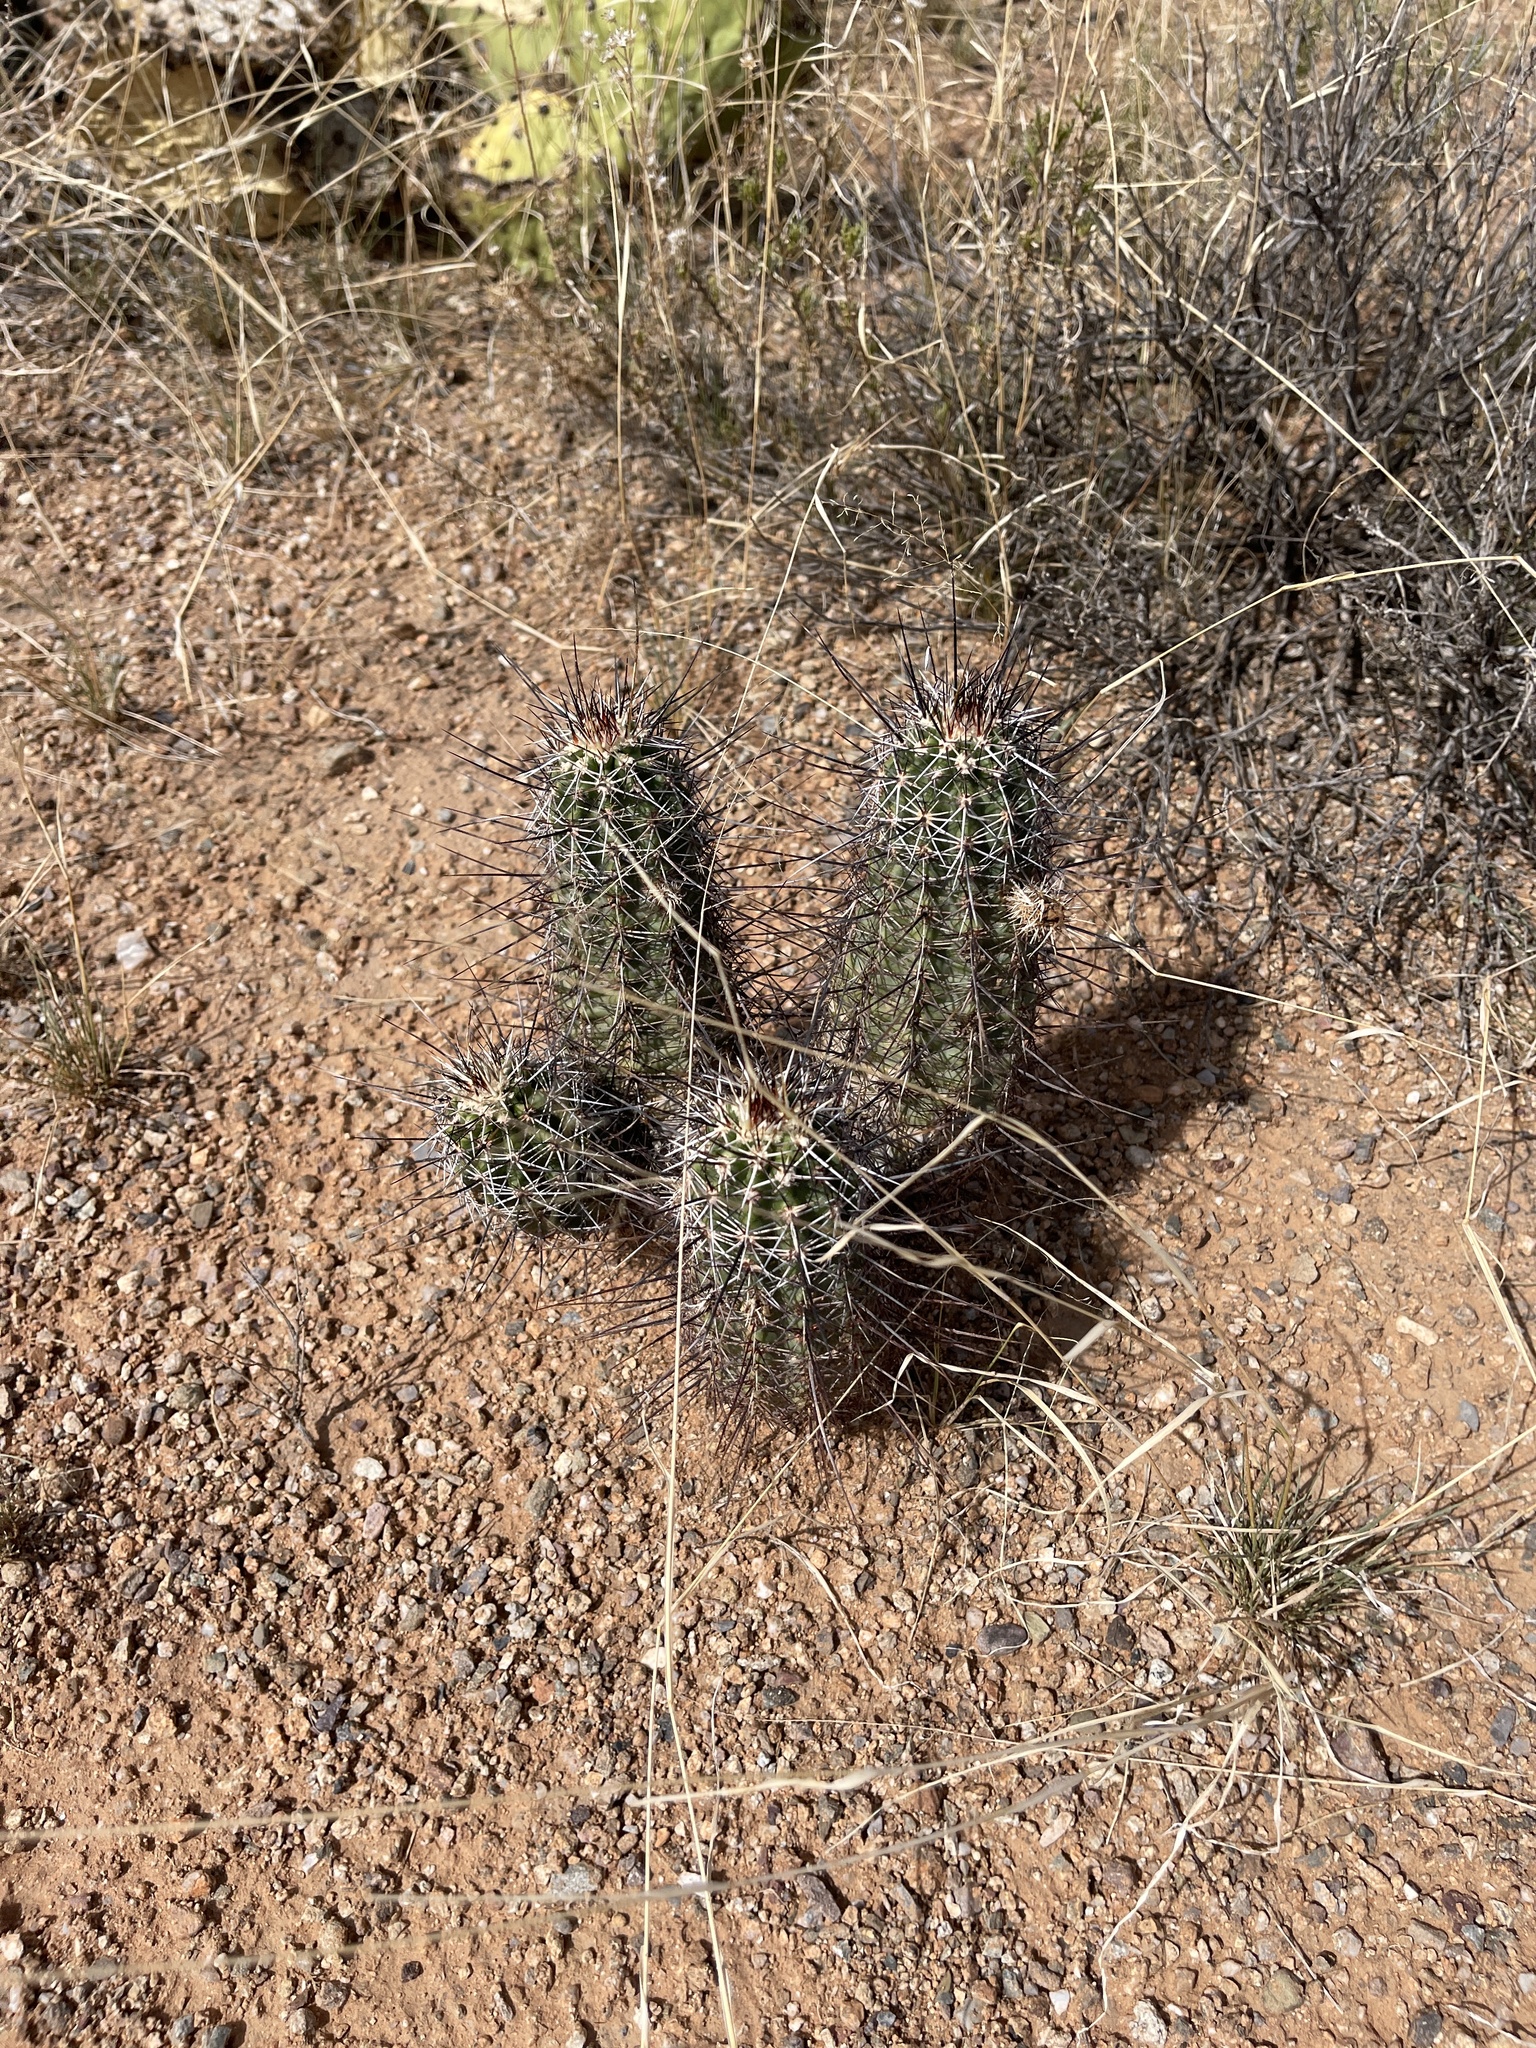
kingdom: Plantae
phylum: Tracheophyta
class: Magnoliopsida
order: Caryophyllales
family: Cactaceae
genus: Echinocereus
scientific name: Echinocereus fasciculatus
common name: Bundle hedgehog
